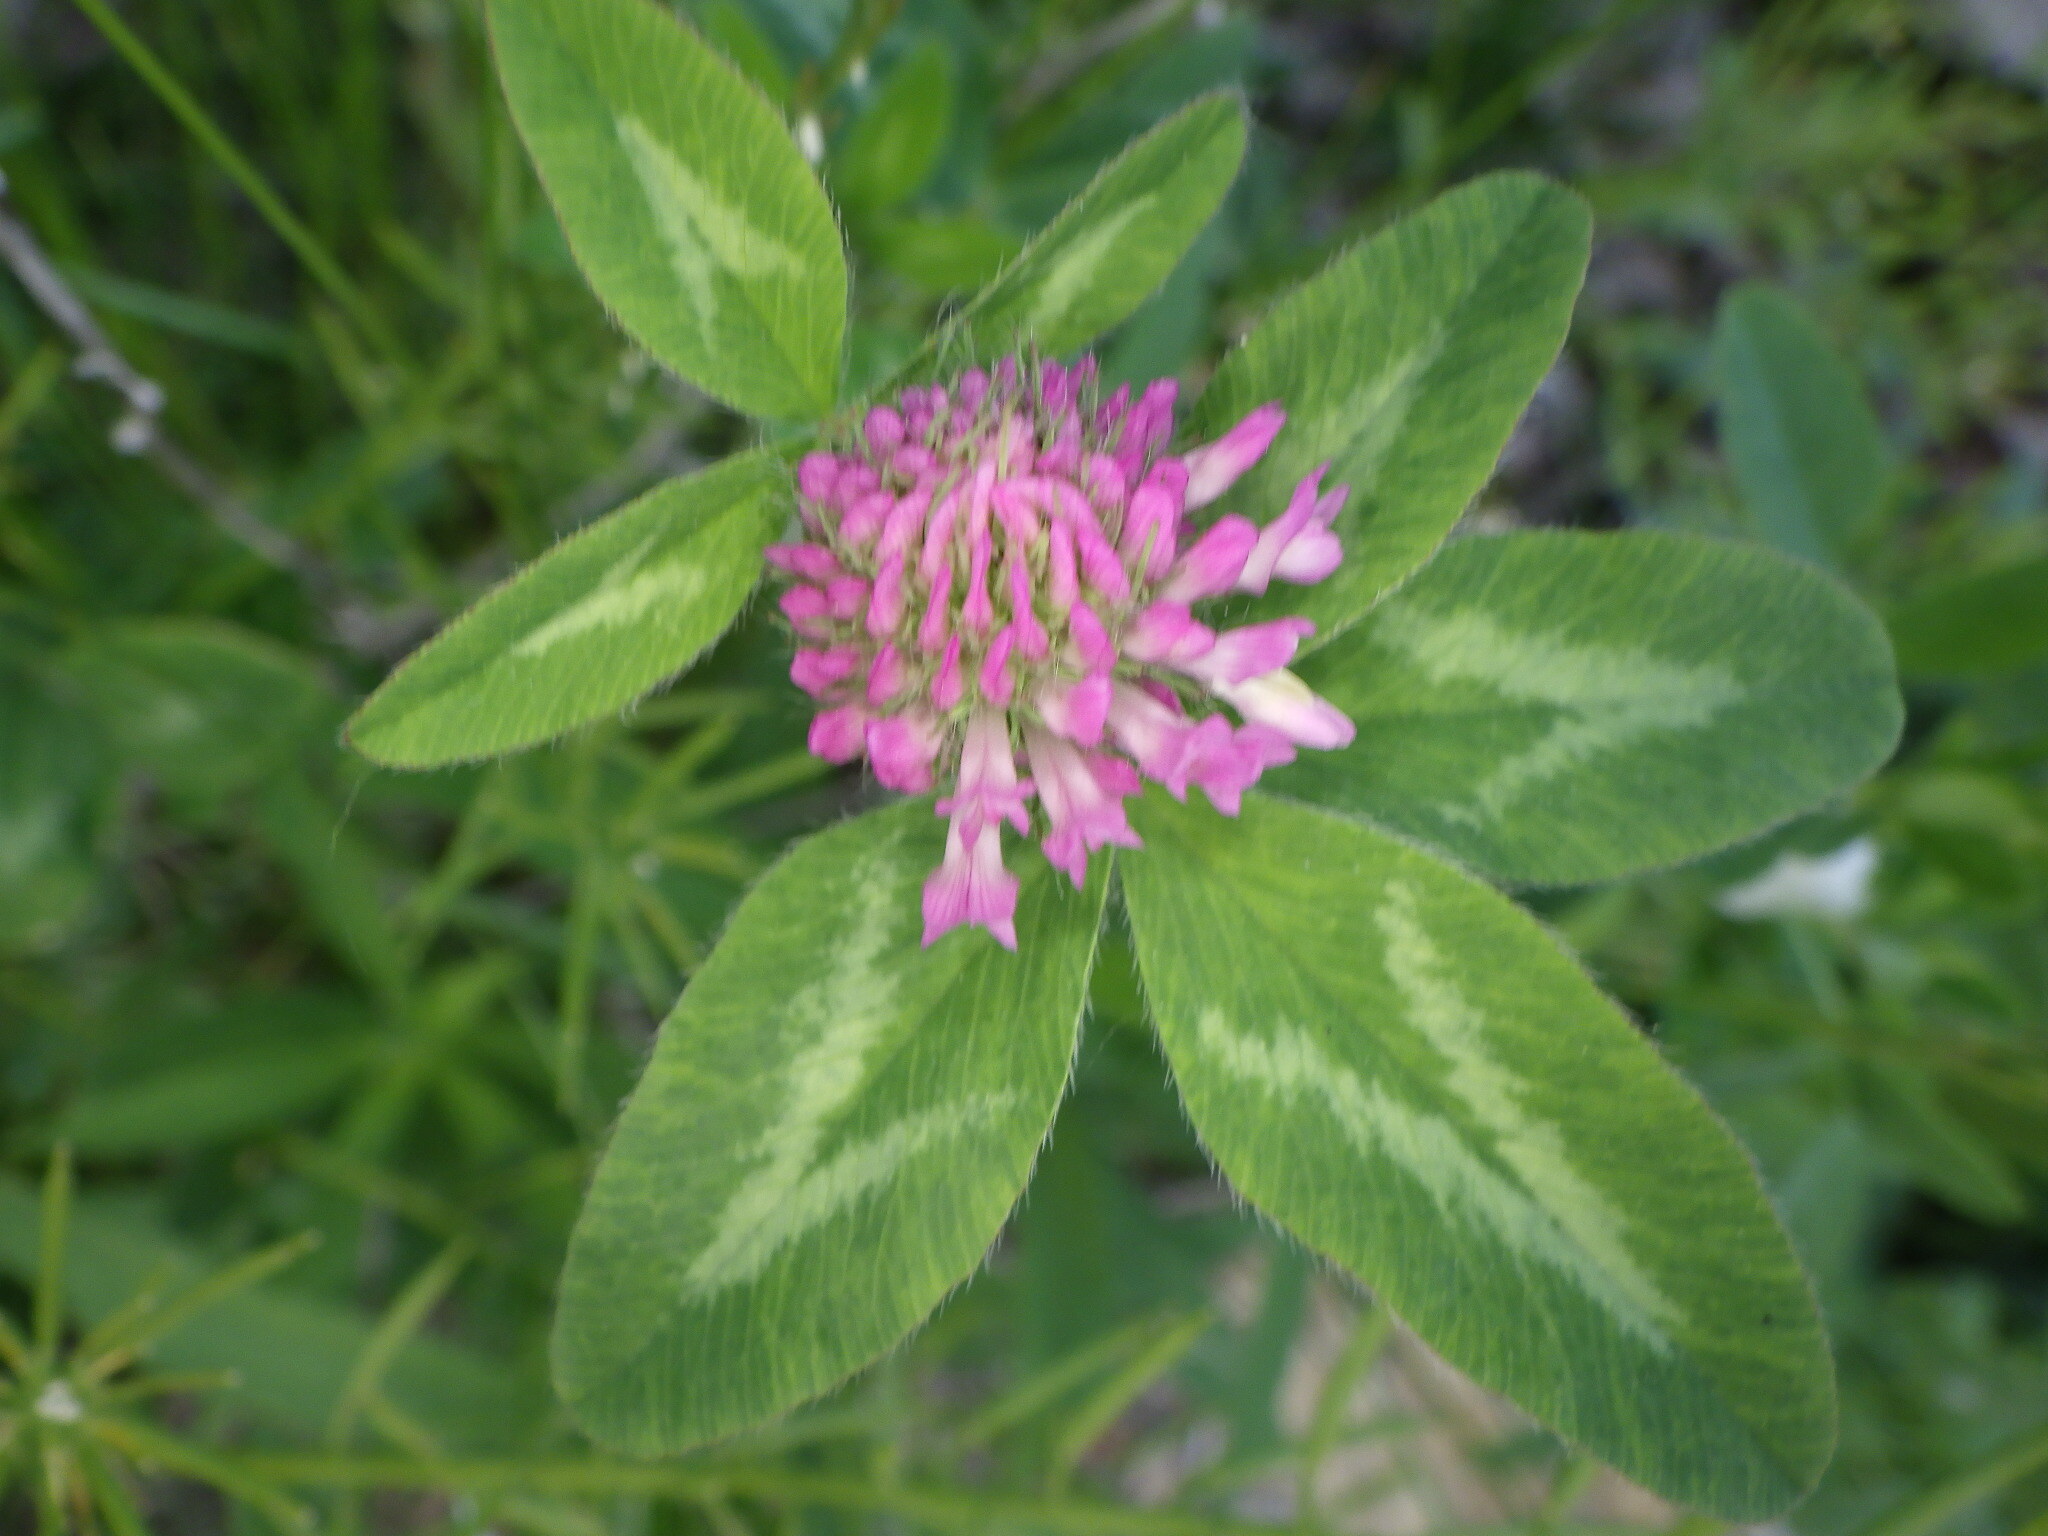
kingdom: Plantae
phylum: Tracheophyta
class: Magnoliopsida
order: Fabales
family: Fabaceae
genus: Trifolium
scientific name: Trifolium pratense
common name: Red clover
